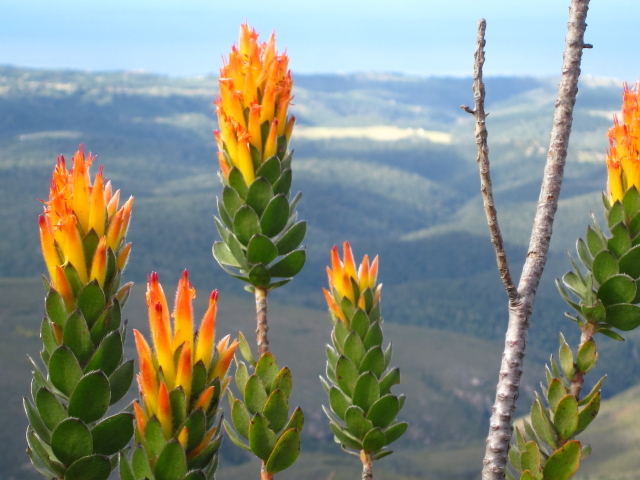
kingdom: Plantae
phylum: Tracheophyta
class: Magnoliopsida
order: Proteales
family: Proteaceae
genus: Mimetes
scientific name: Mimetes pauciflora
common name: Three-flowered pagoda
